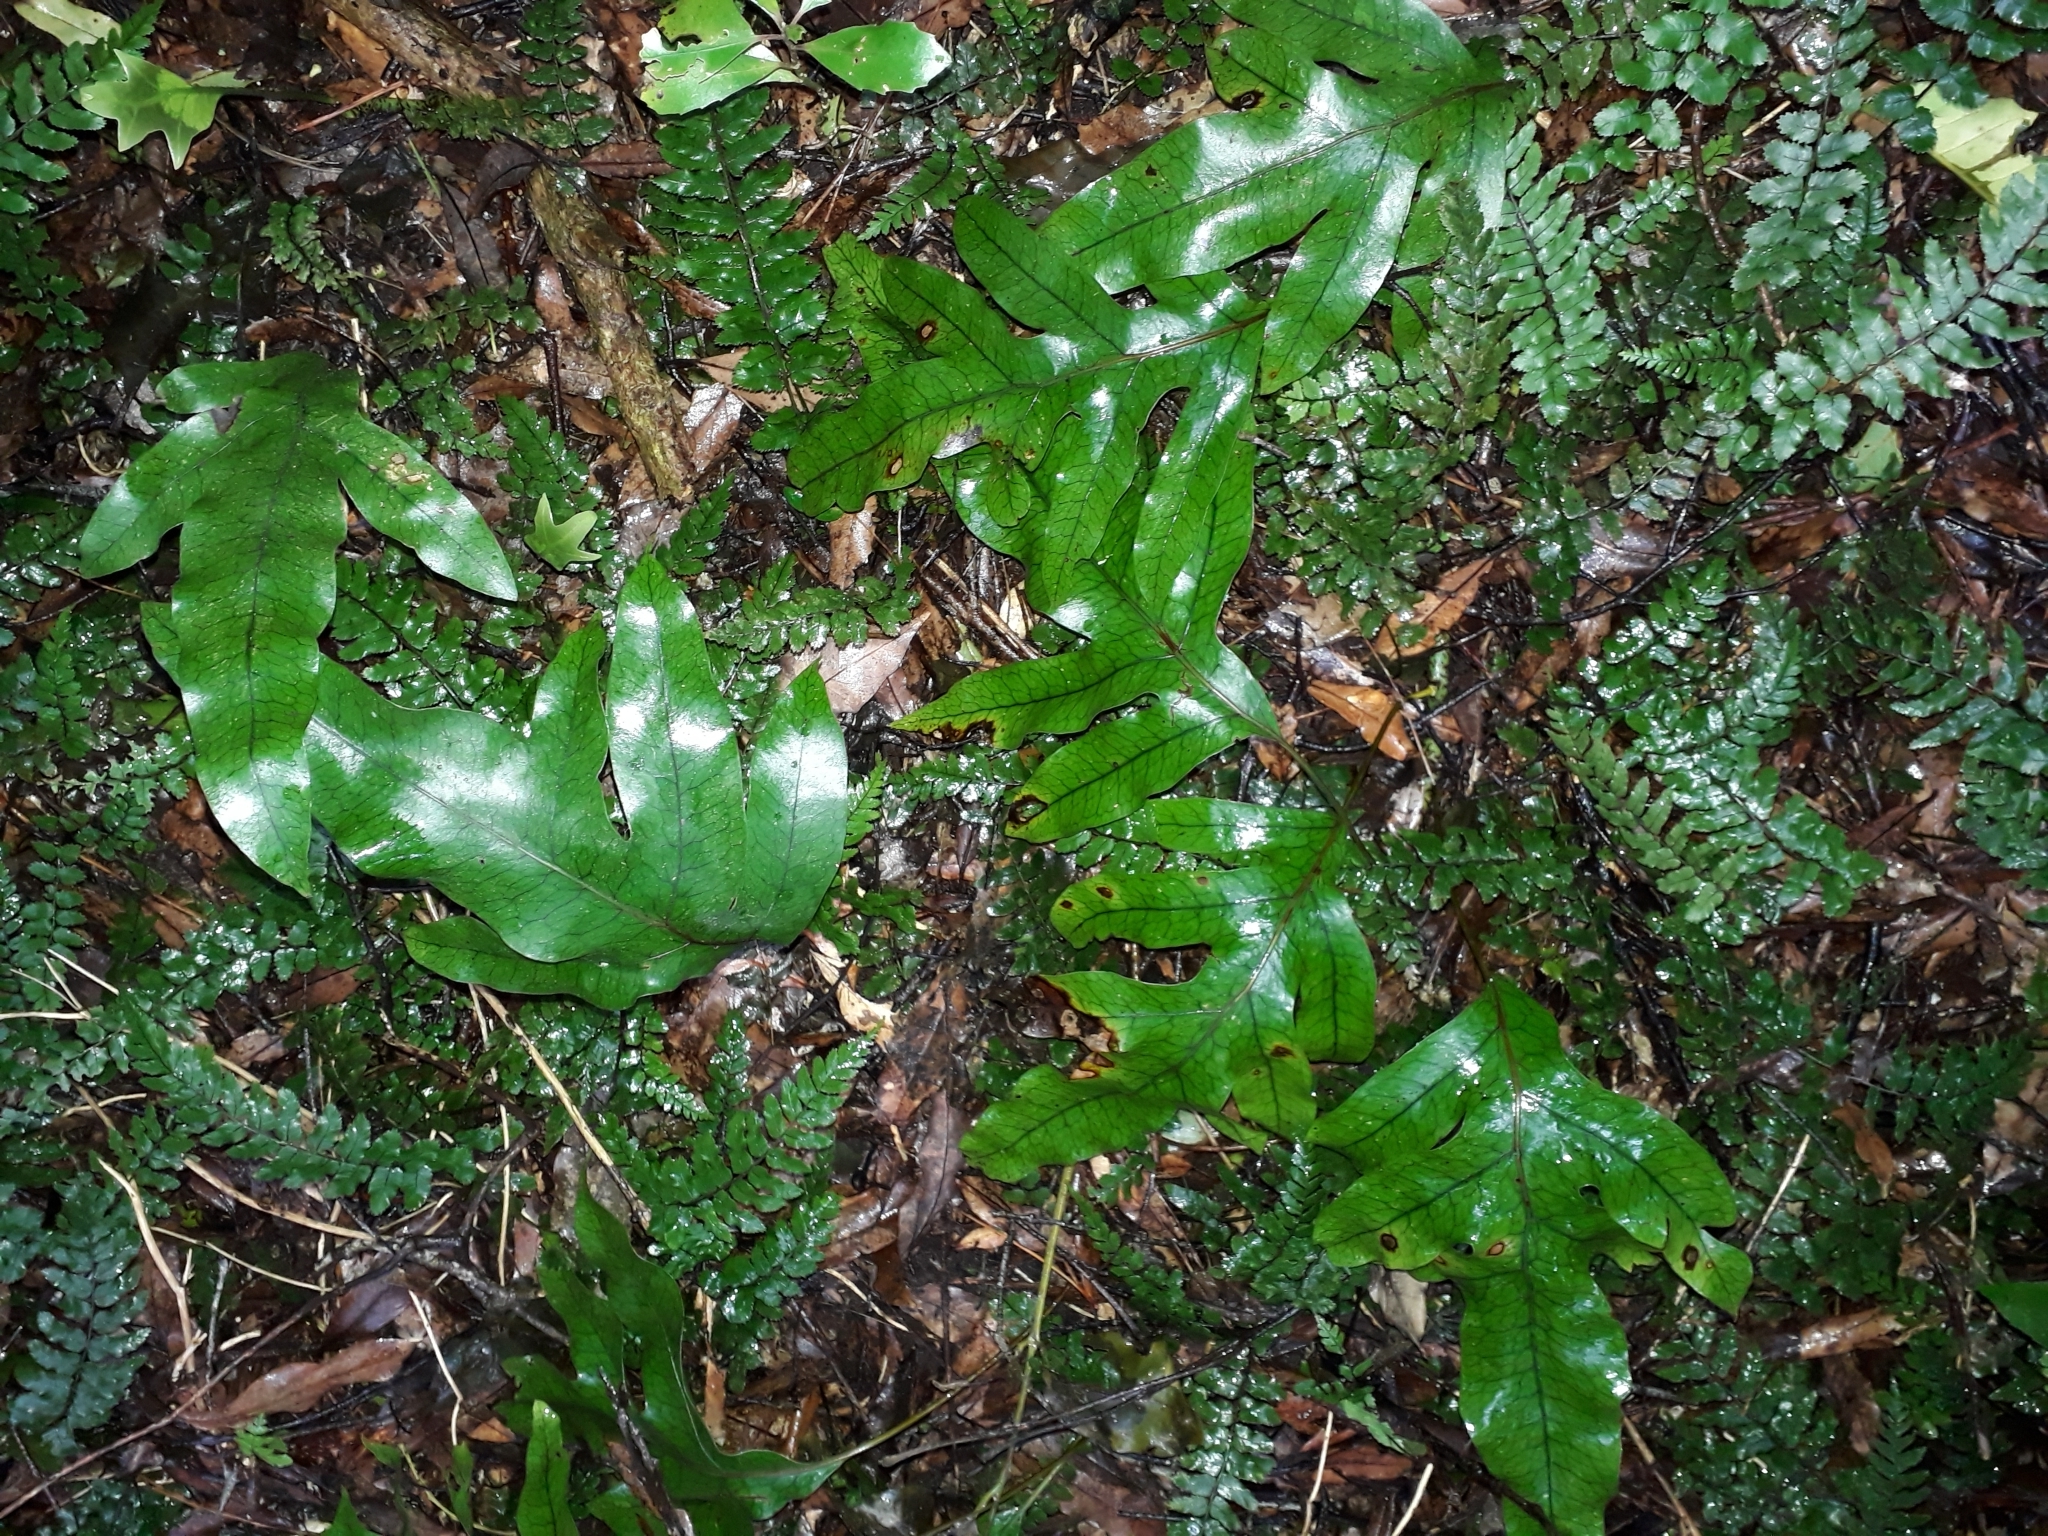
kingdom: Plantae
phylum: Tracheophyta
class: Polypodiopsida
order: Polypodiales
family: Polypodiaceae
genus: Lecanopteris
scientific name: Lecanopteris pustulata
